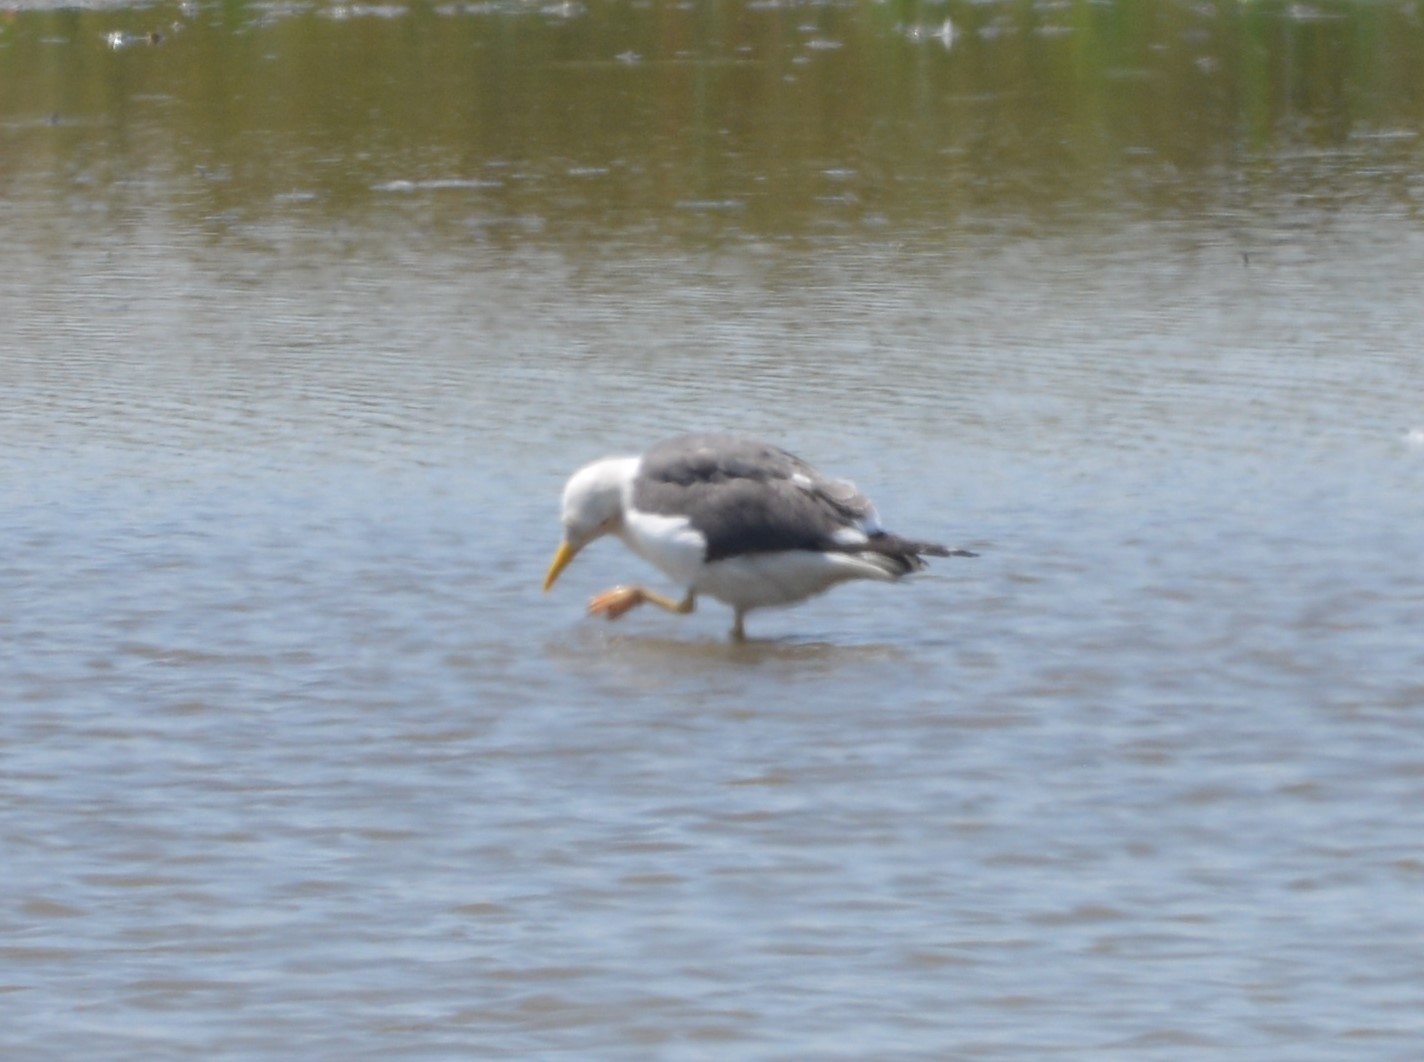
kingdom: Animalia
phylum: Chordata
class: Aves
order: Charadriiformes
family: Laridae
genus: Larus
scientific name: Larus fuscus
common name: Lesser black-backed gull
